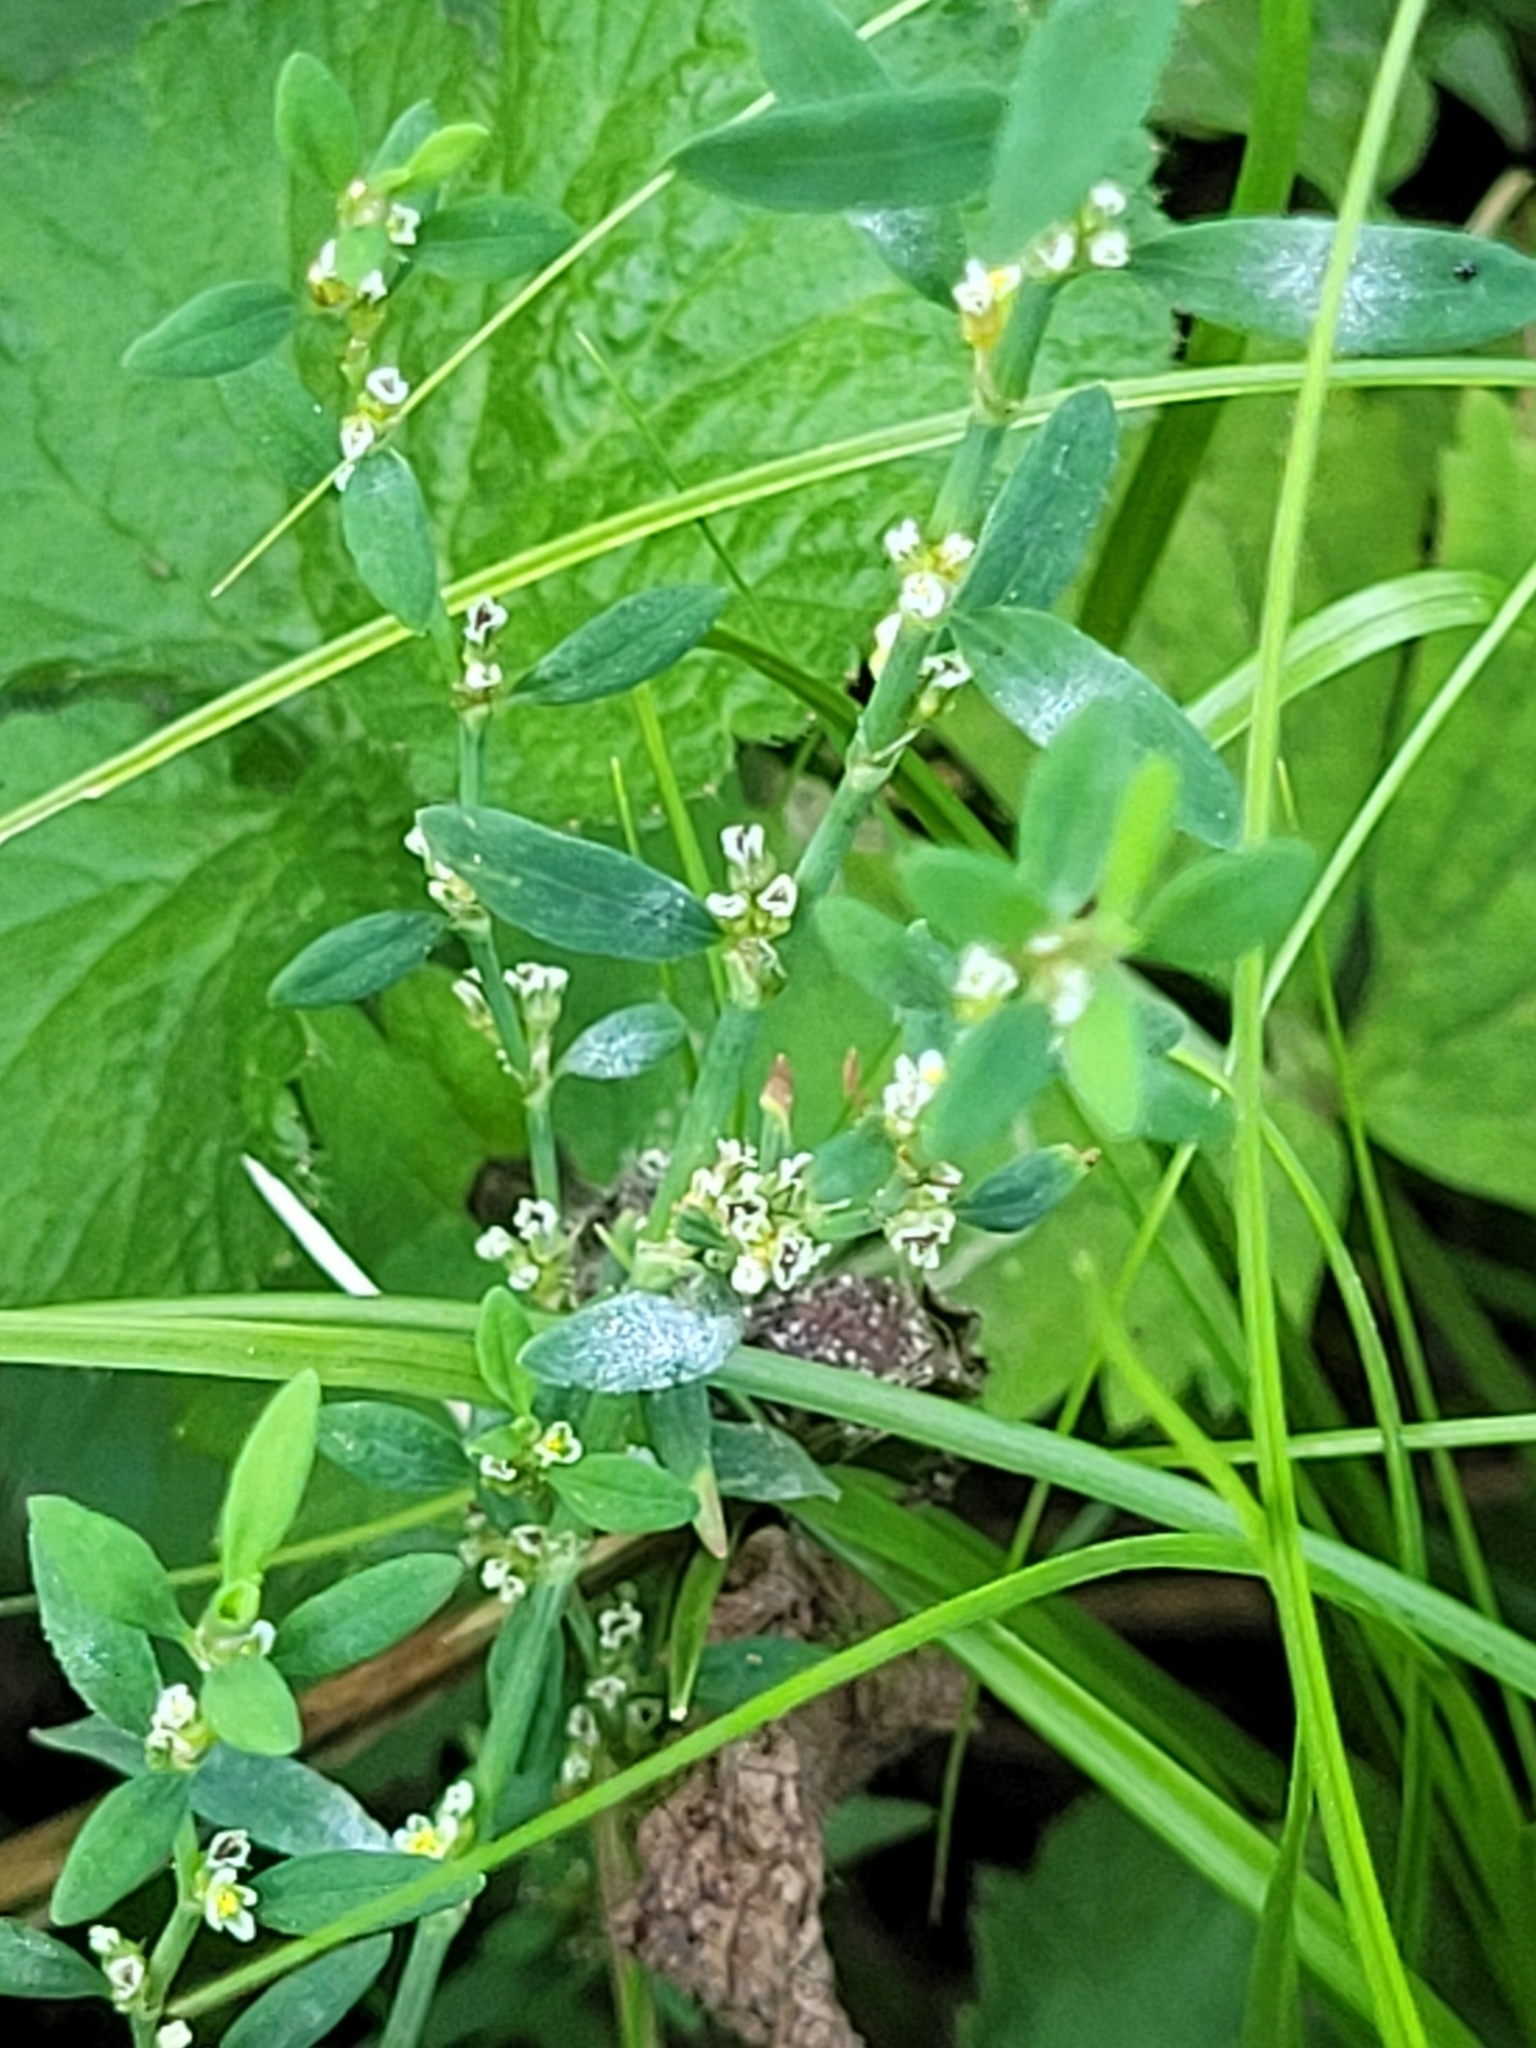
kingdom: Plantae
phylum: Tracheophyta
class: Magnoliopsida
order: Caryophyllales
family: Polygonaceae
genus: Polygonum
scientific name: Polygonum aviculare
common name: Prostrate knotweed
